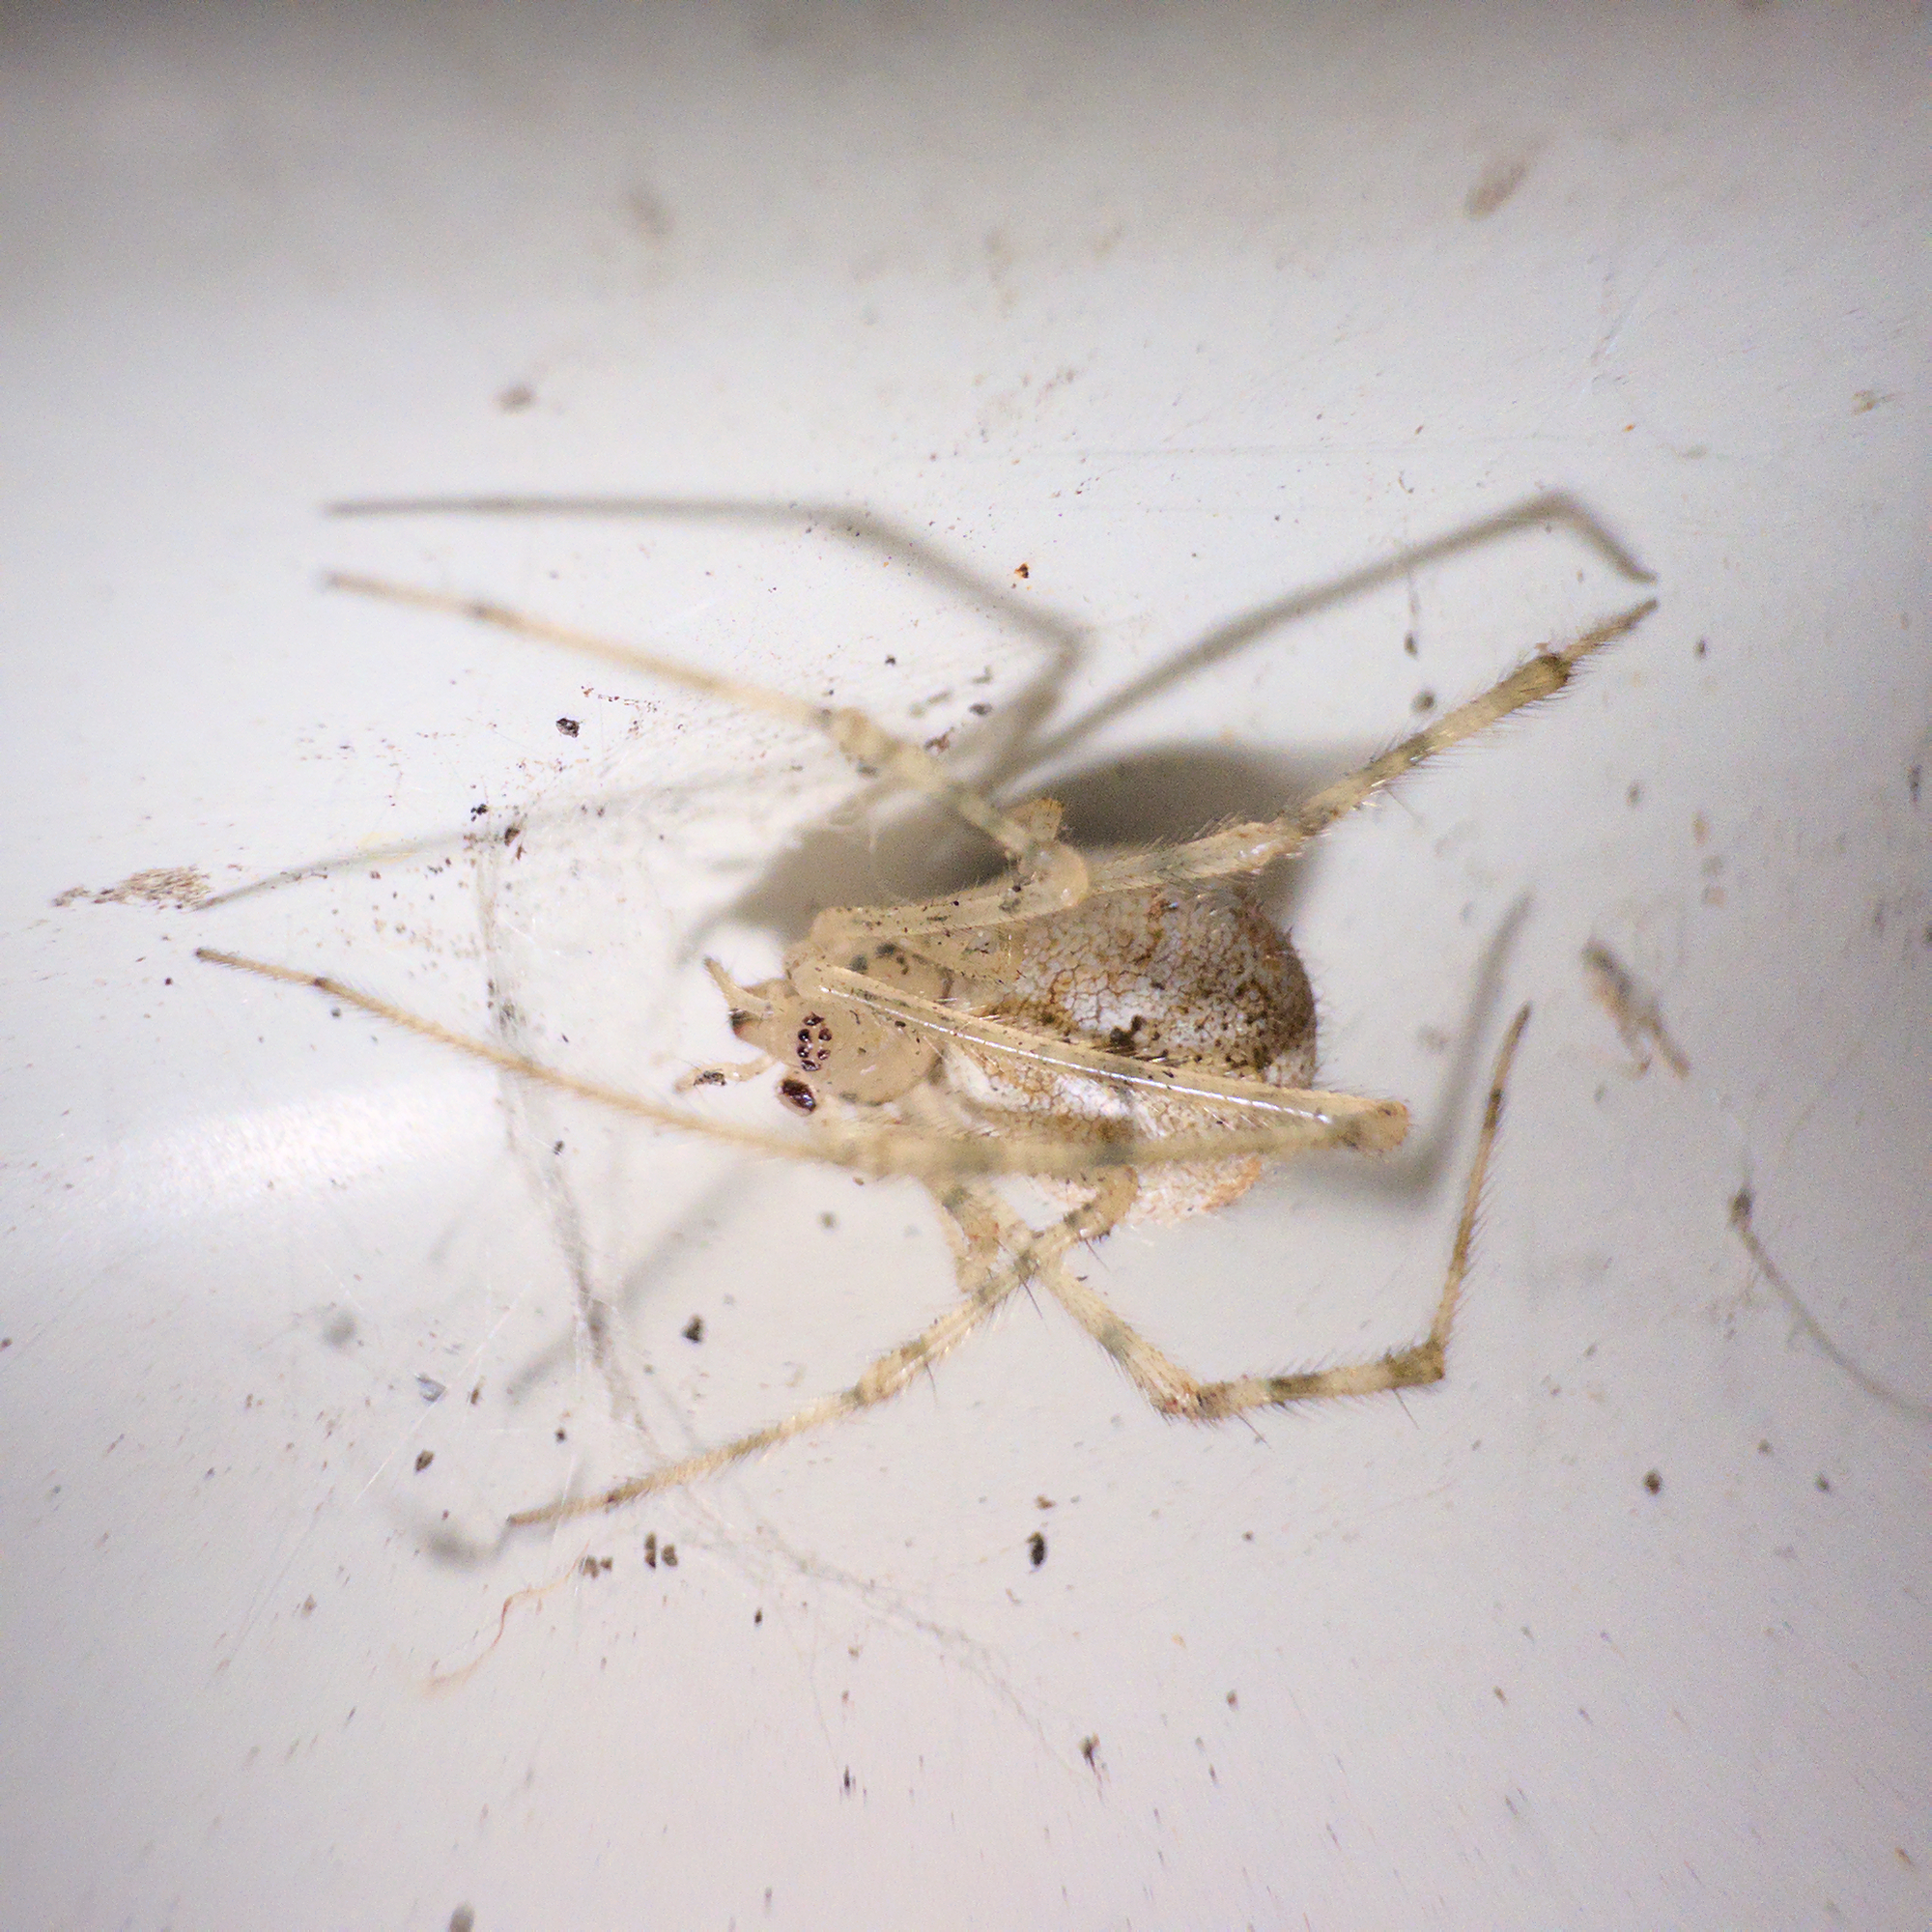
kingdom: Animalia
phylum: Arthropoda
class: Arachnida
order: Araneae
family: Theridiidae
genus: Cryptachaea
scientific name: Cryptachaea gigantipes
